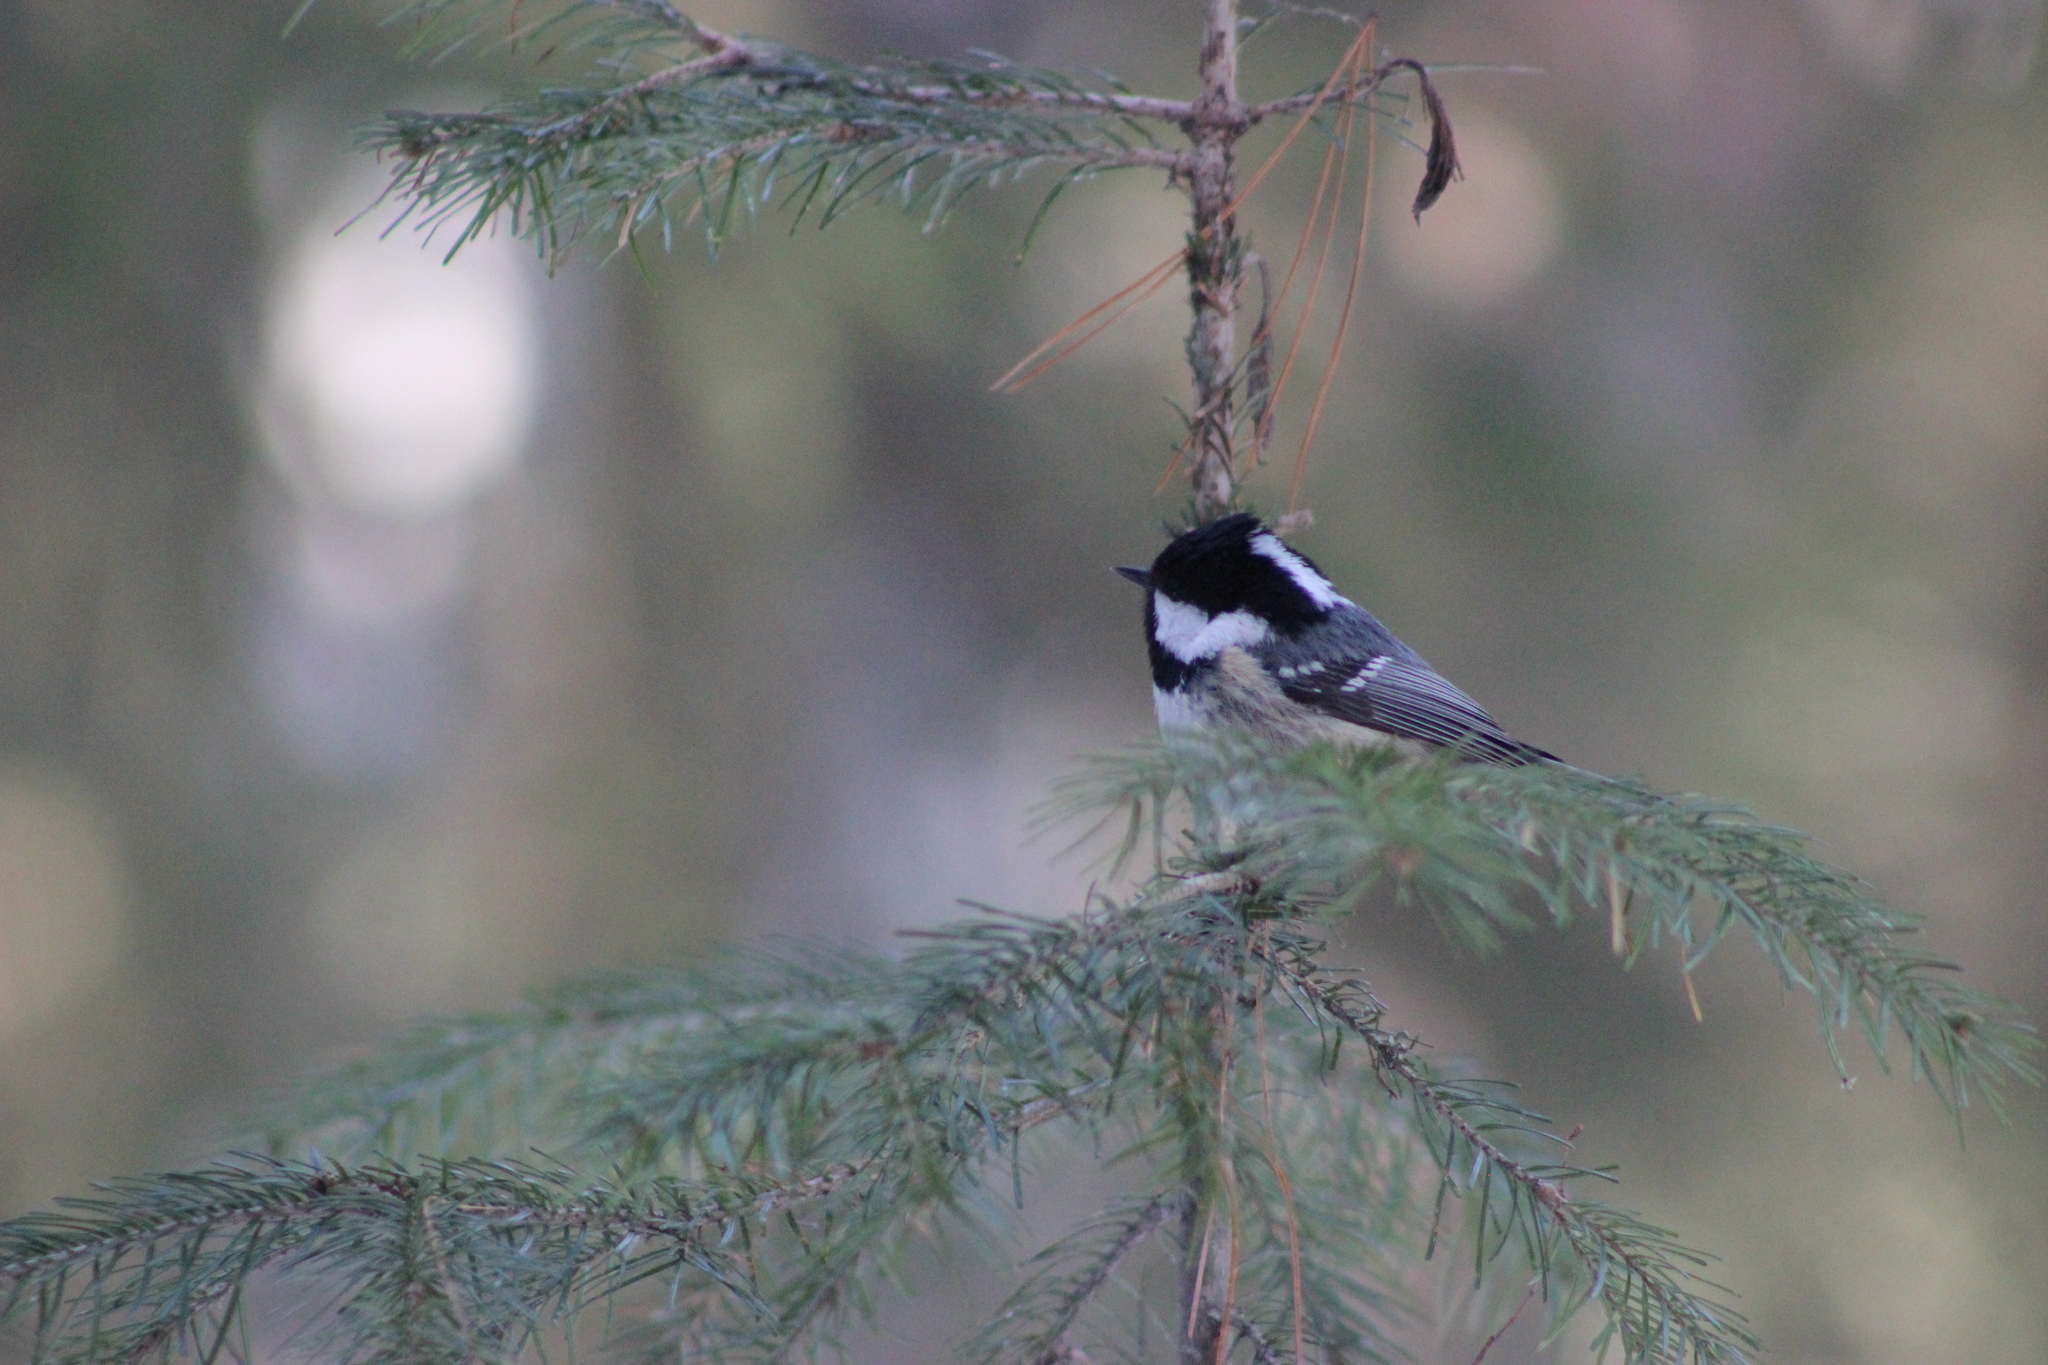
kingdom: Animalia
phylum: Chordata
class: Aves
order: Passeriformes
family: Paridae
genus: Periparus
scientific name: Periparus ater
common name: Coal tit
